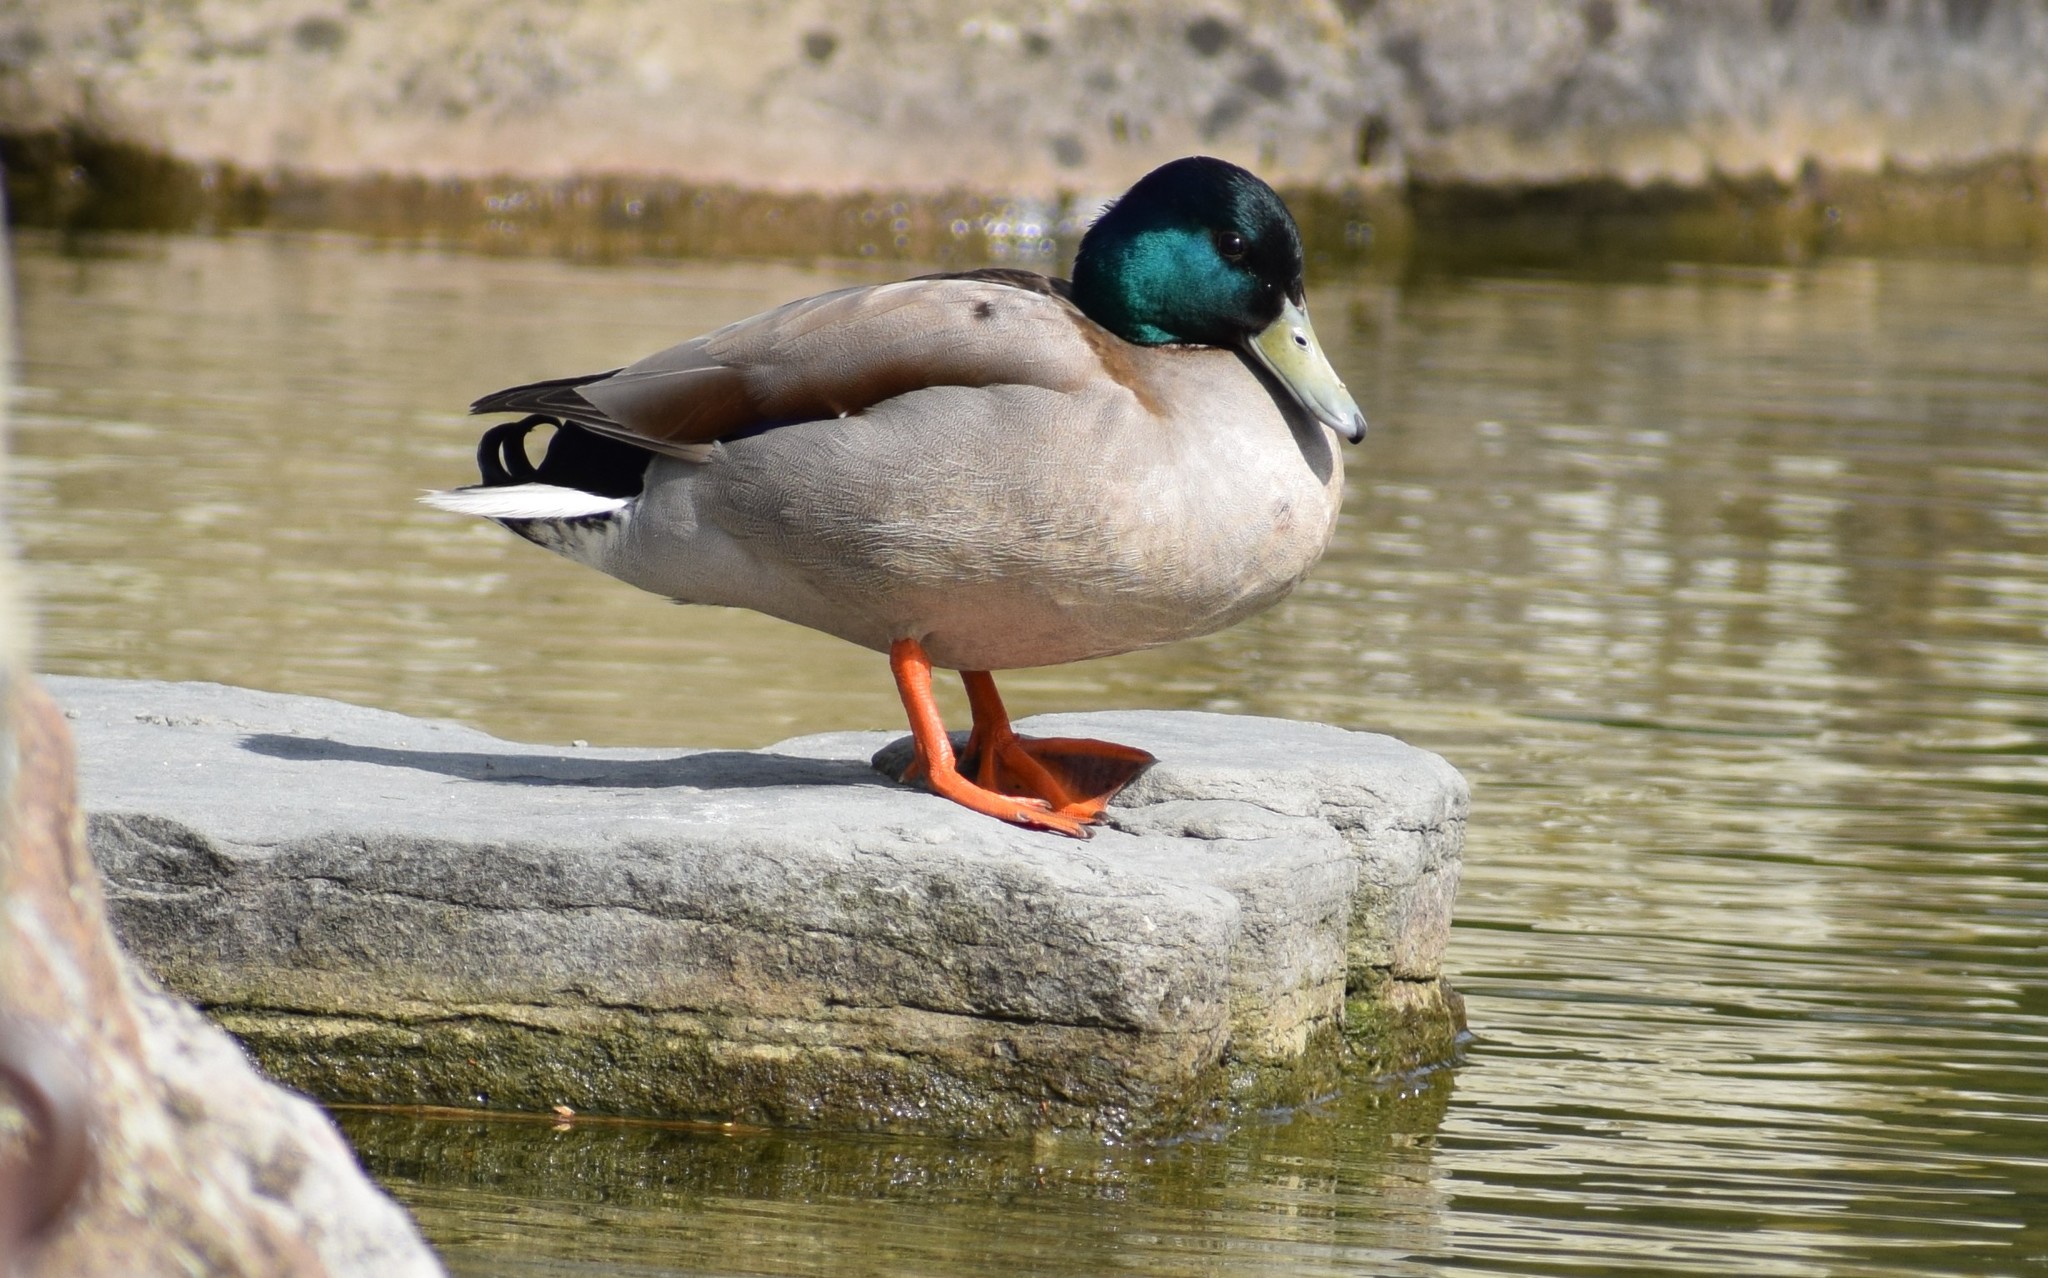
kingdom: Animalia
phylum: Chordata
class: Aves
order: Anseriformes
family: Anatidae
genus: Anas
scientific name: Anas platyrhynchos
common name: Mallard
